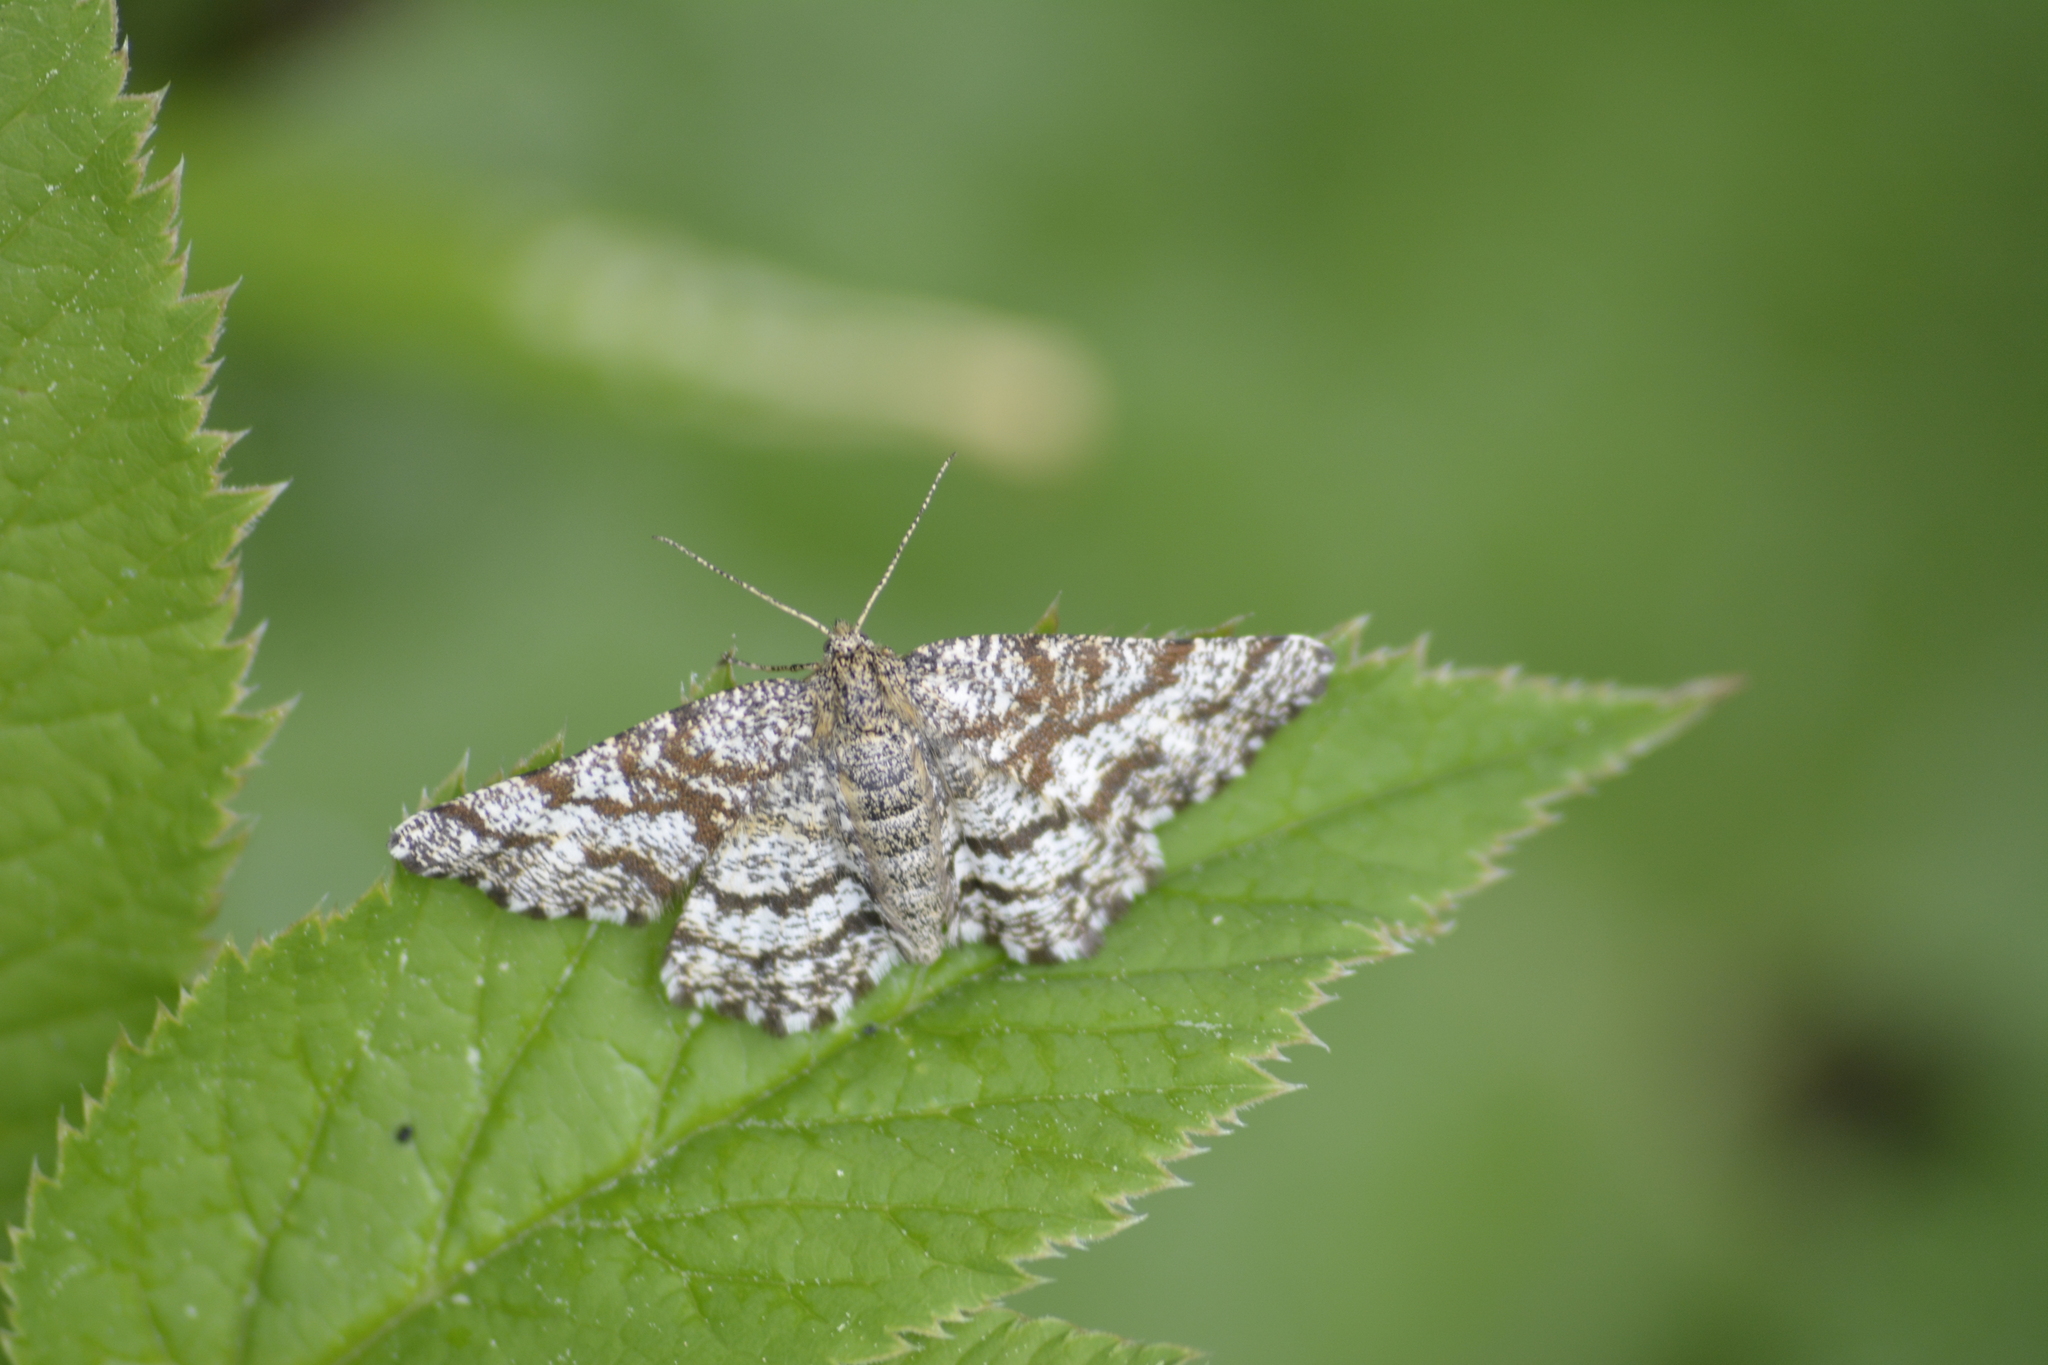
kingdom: Animalia
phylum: Arthropoda
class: Insecta
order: Lepidoptera
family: Geometridae
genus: Ematurga
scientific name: Ematurga atomaria
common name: Common heath
